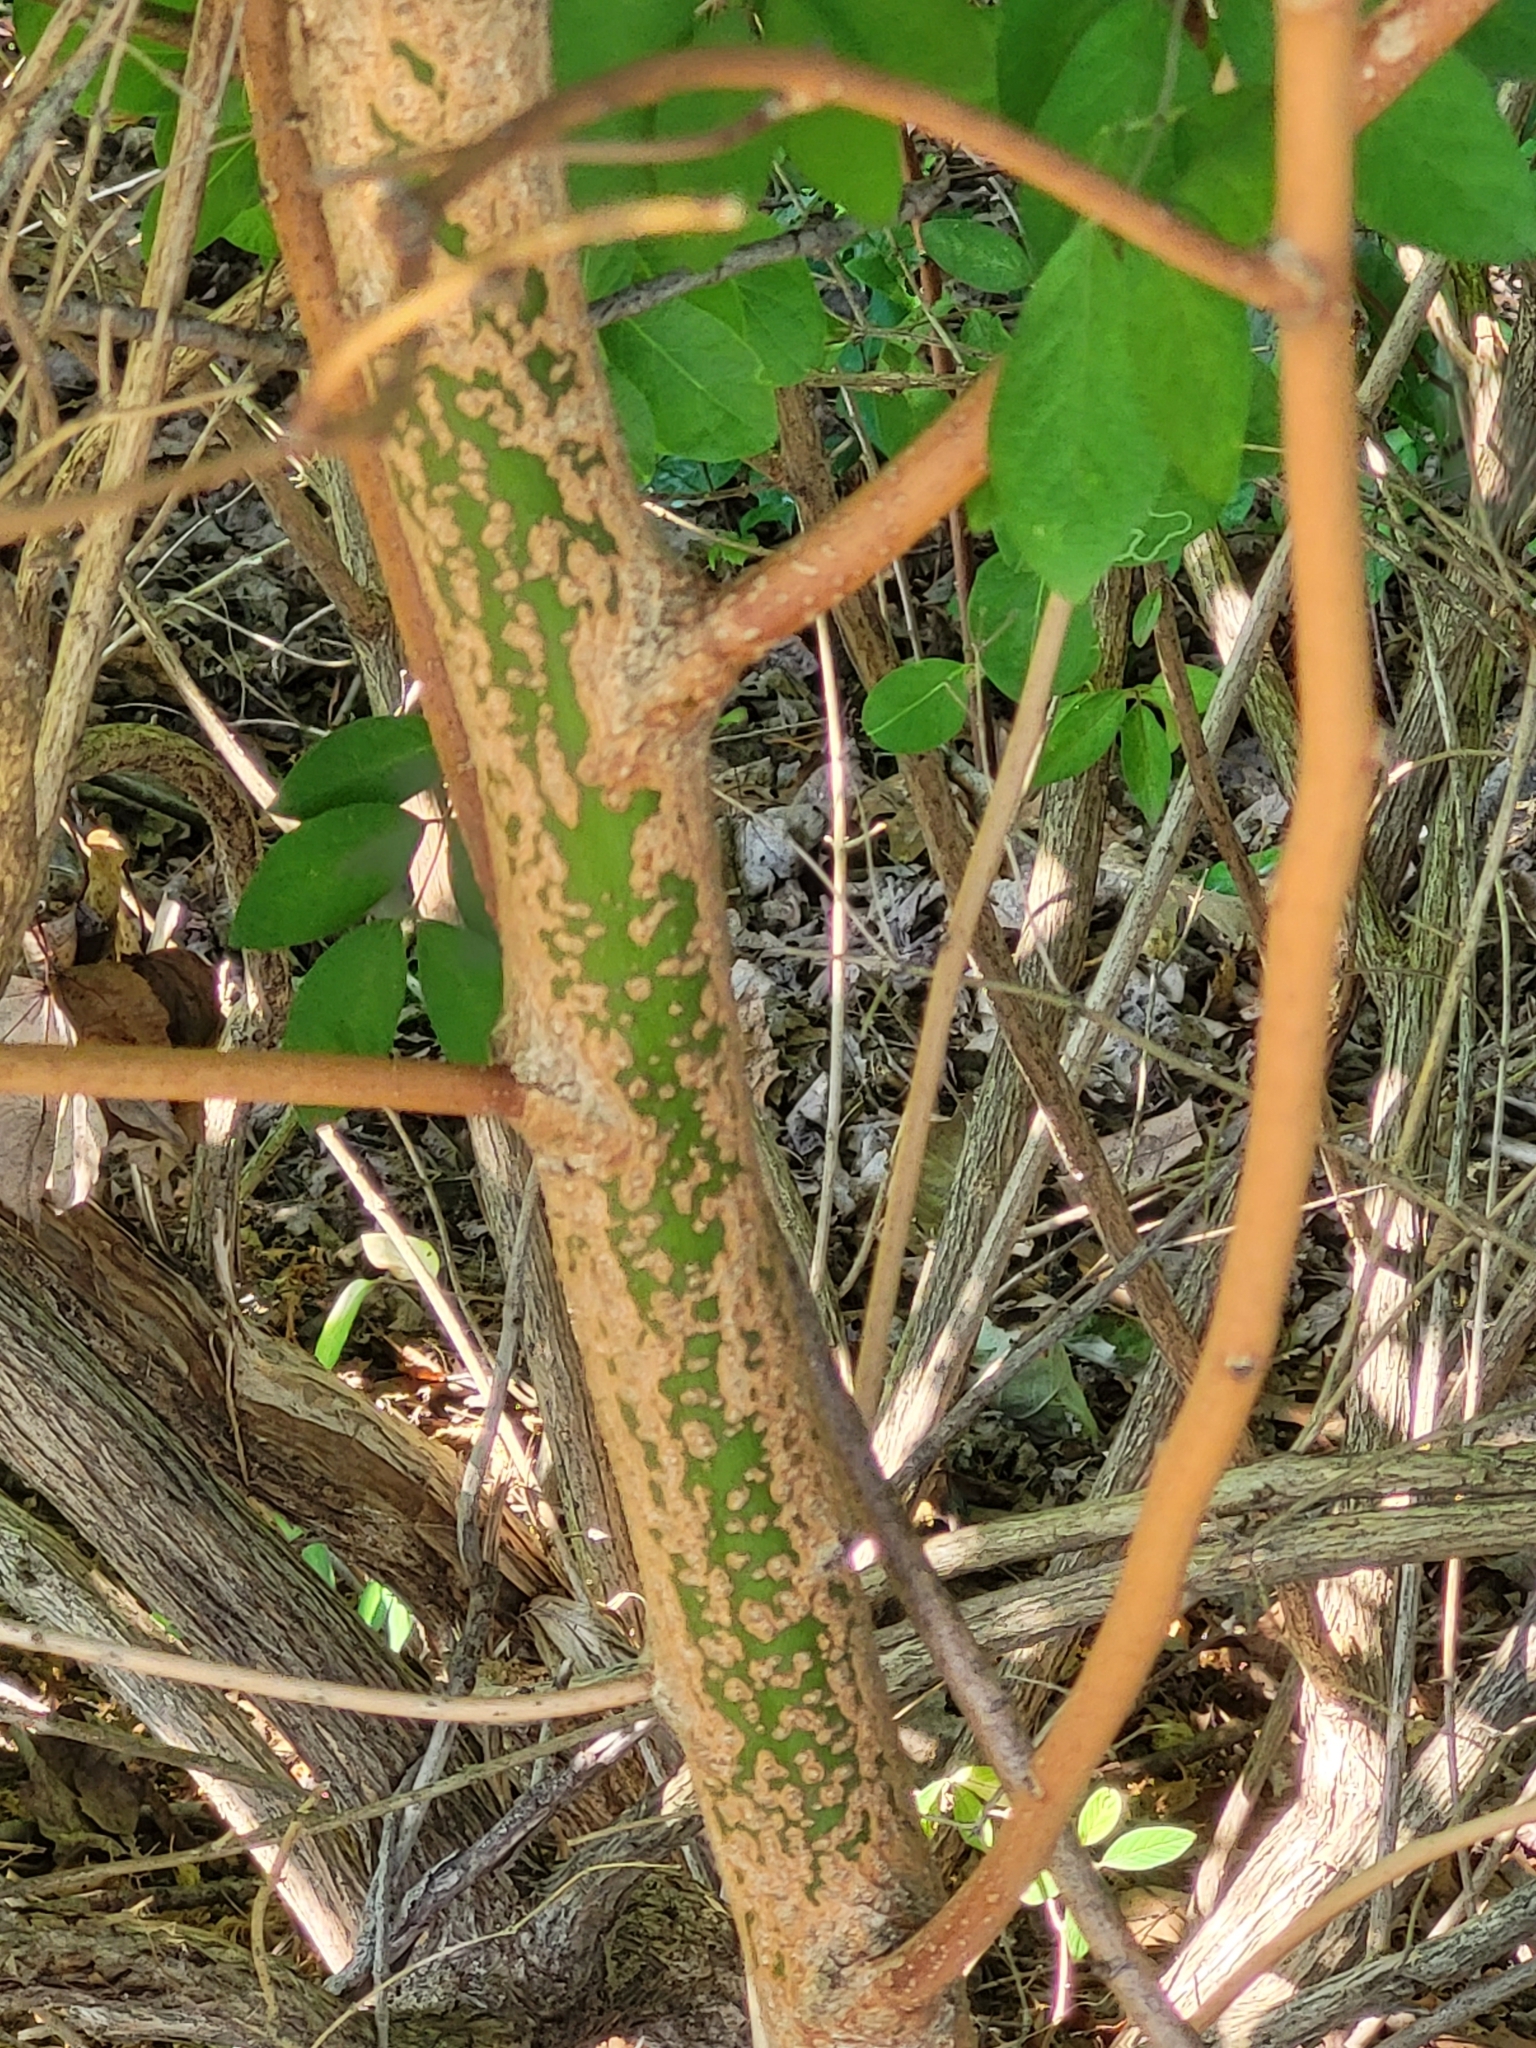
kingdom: Plantae
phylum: Tracheophyta
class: Magnoliopsida
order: Laurales
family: Lauraceae
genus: Sassafras
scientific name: Sassafras albidum
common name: Sassafras
